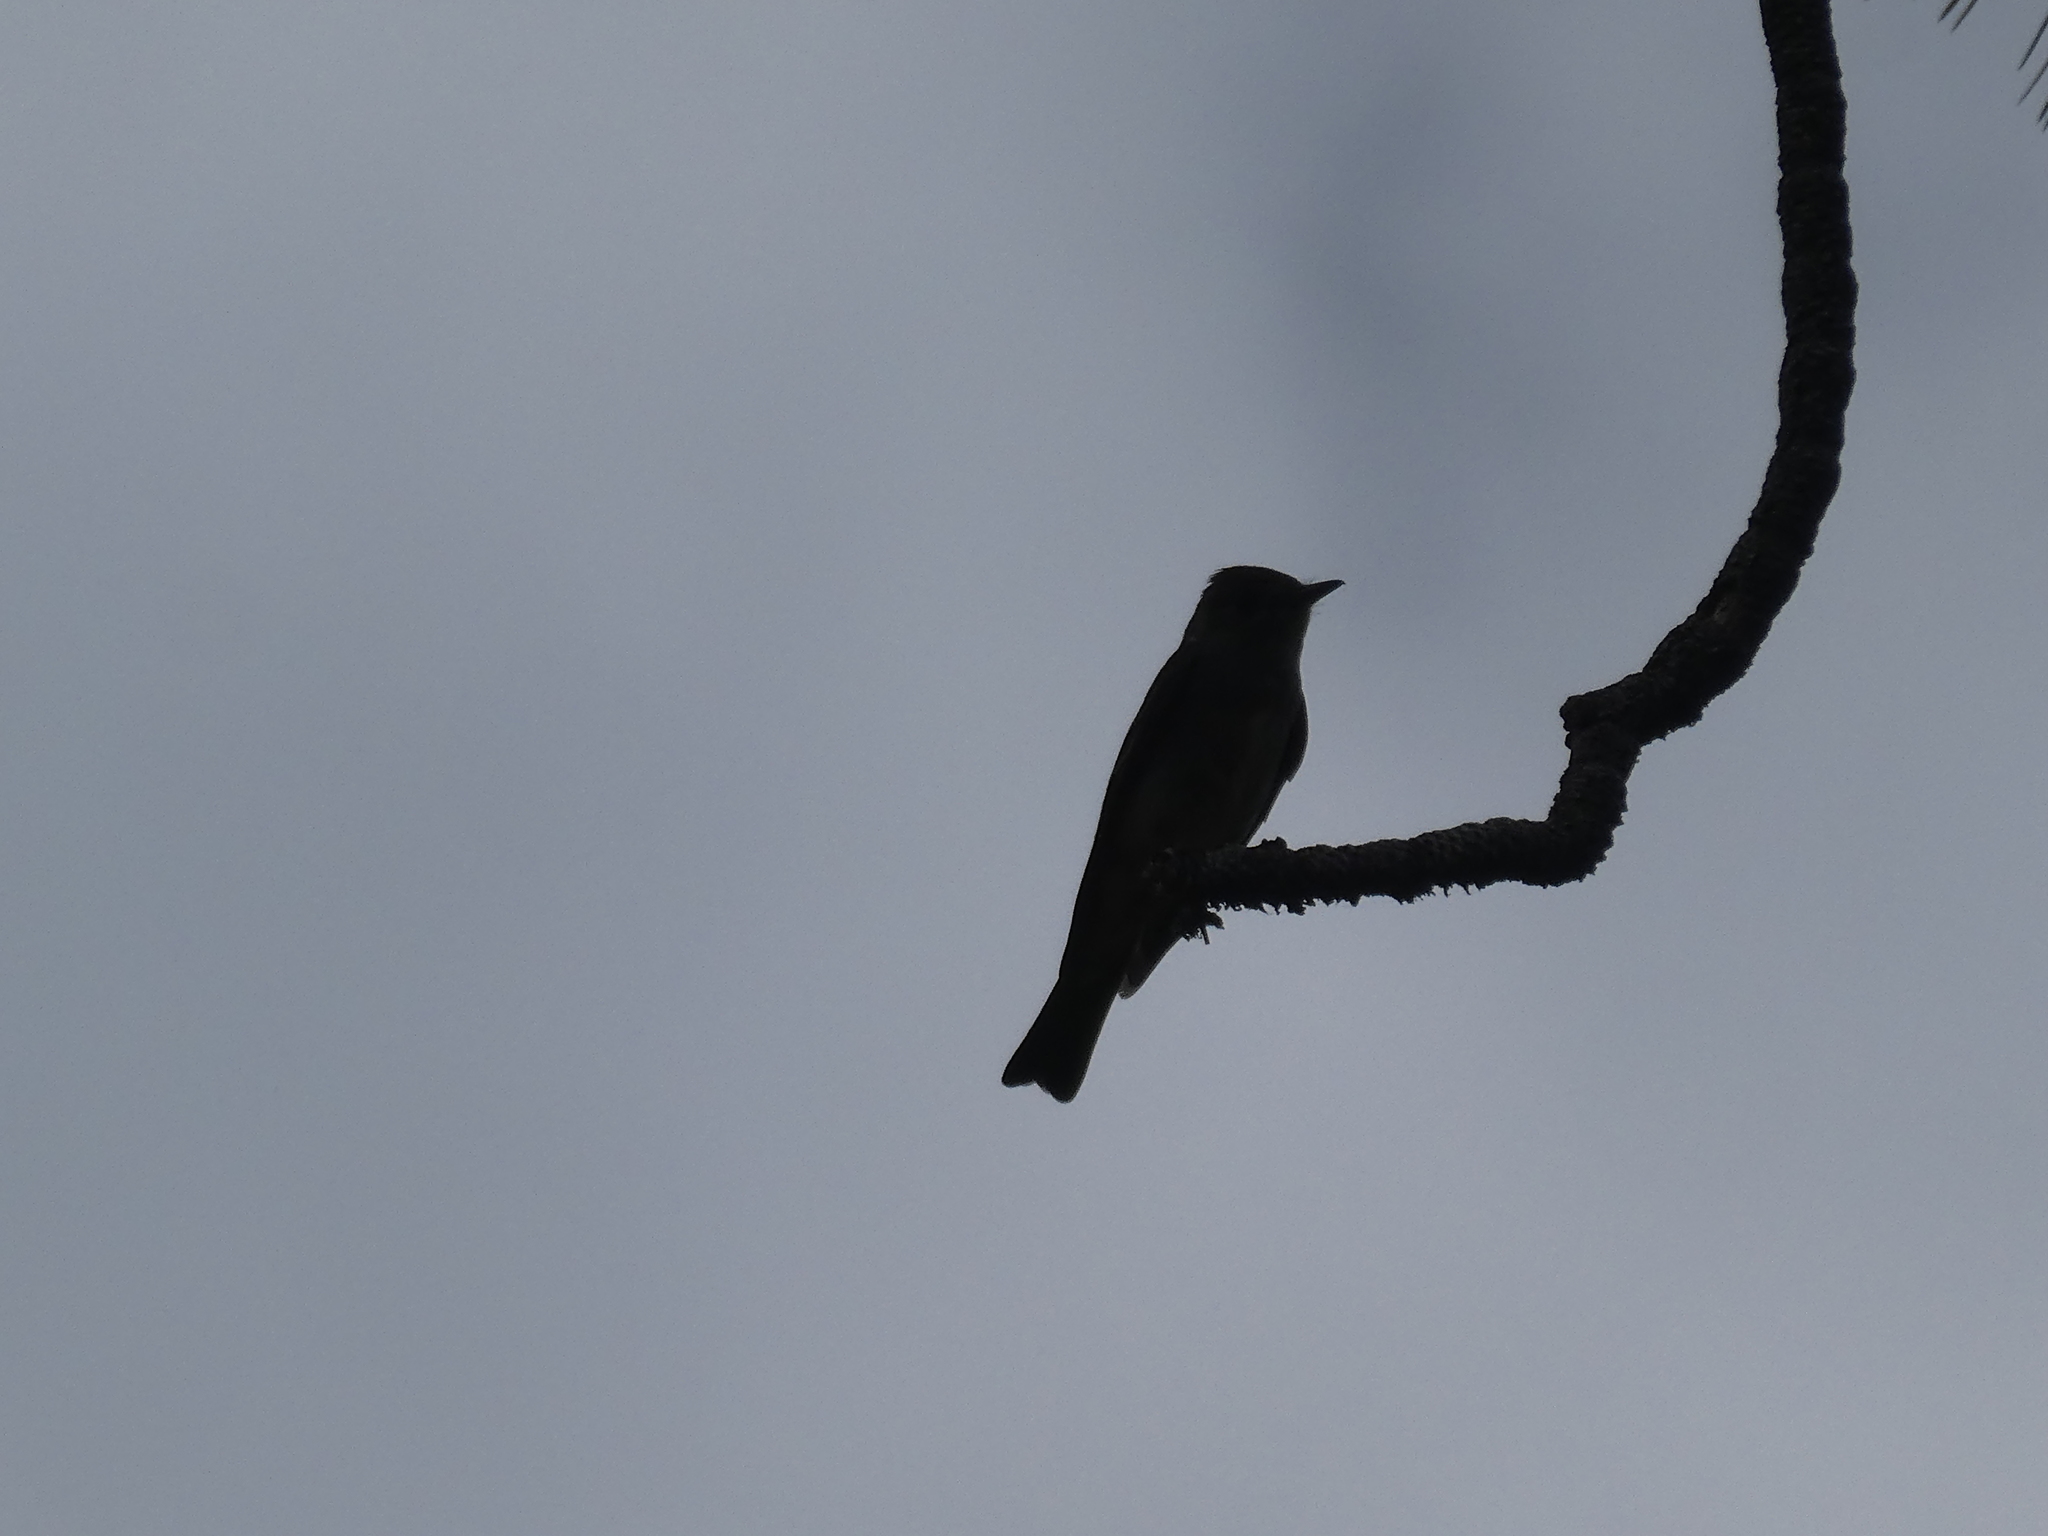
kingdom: Animalia
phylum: Chordata
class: Aves
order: Passeriformes
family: Tyrannidae
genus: Contopus
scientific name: Contopus sordidulus
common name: Western wood-pewee
